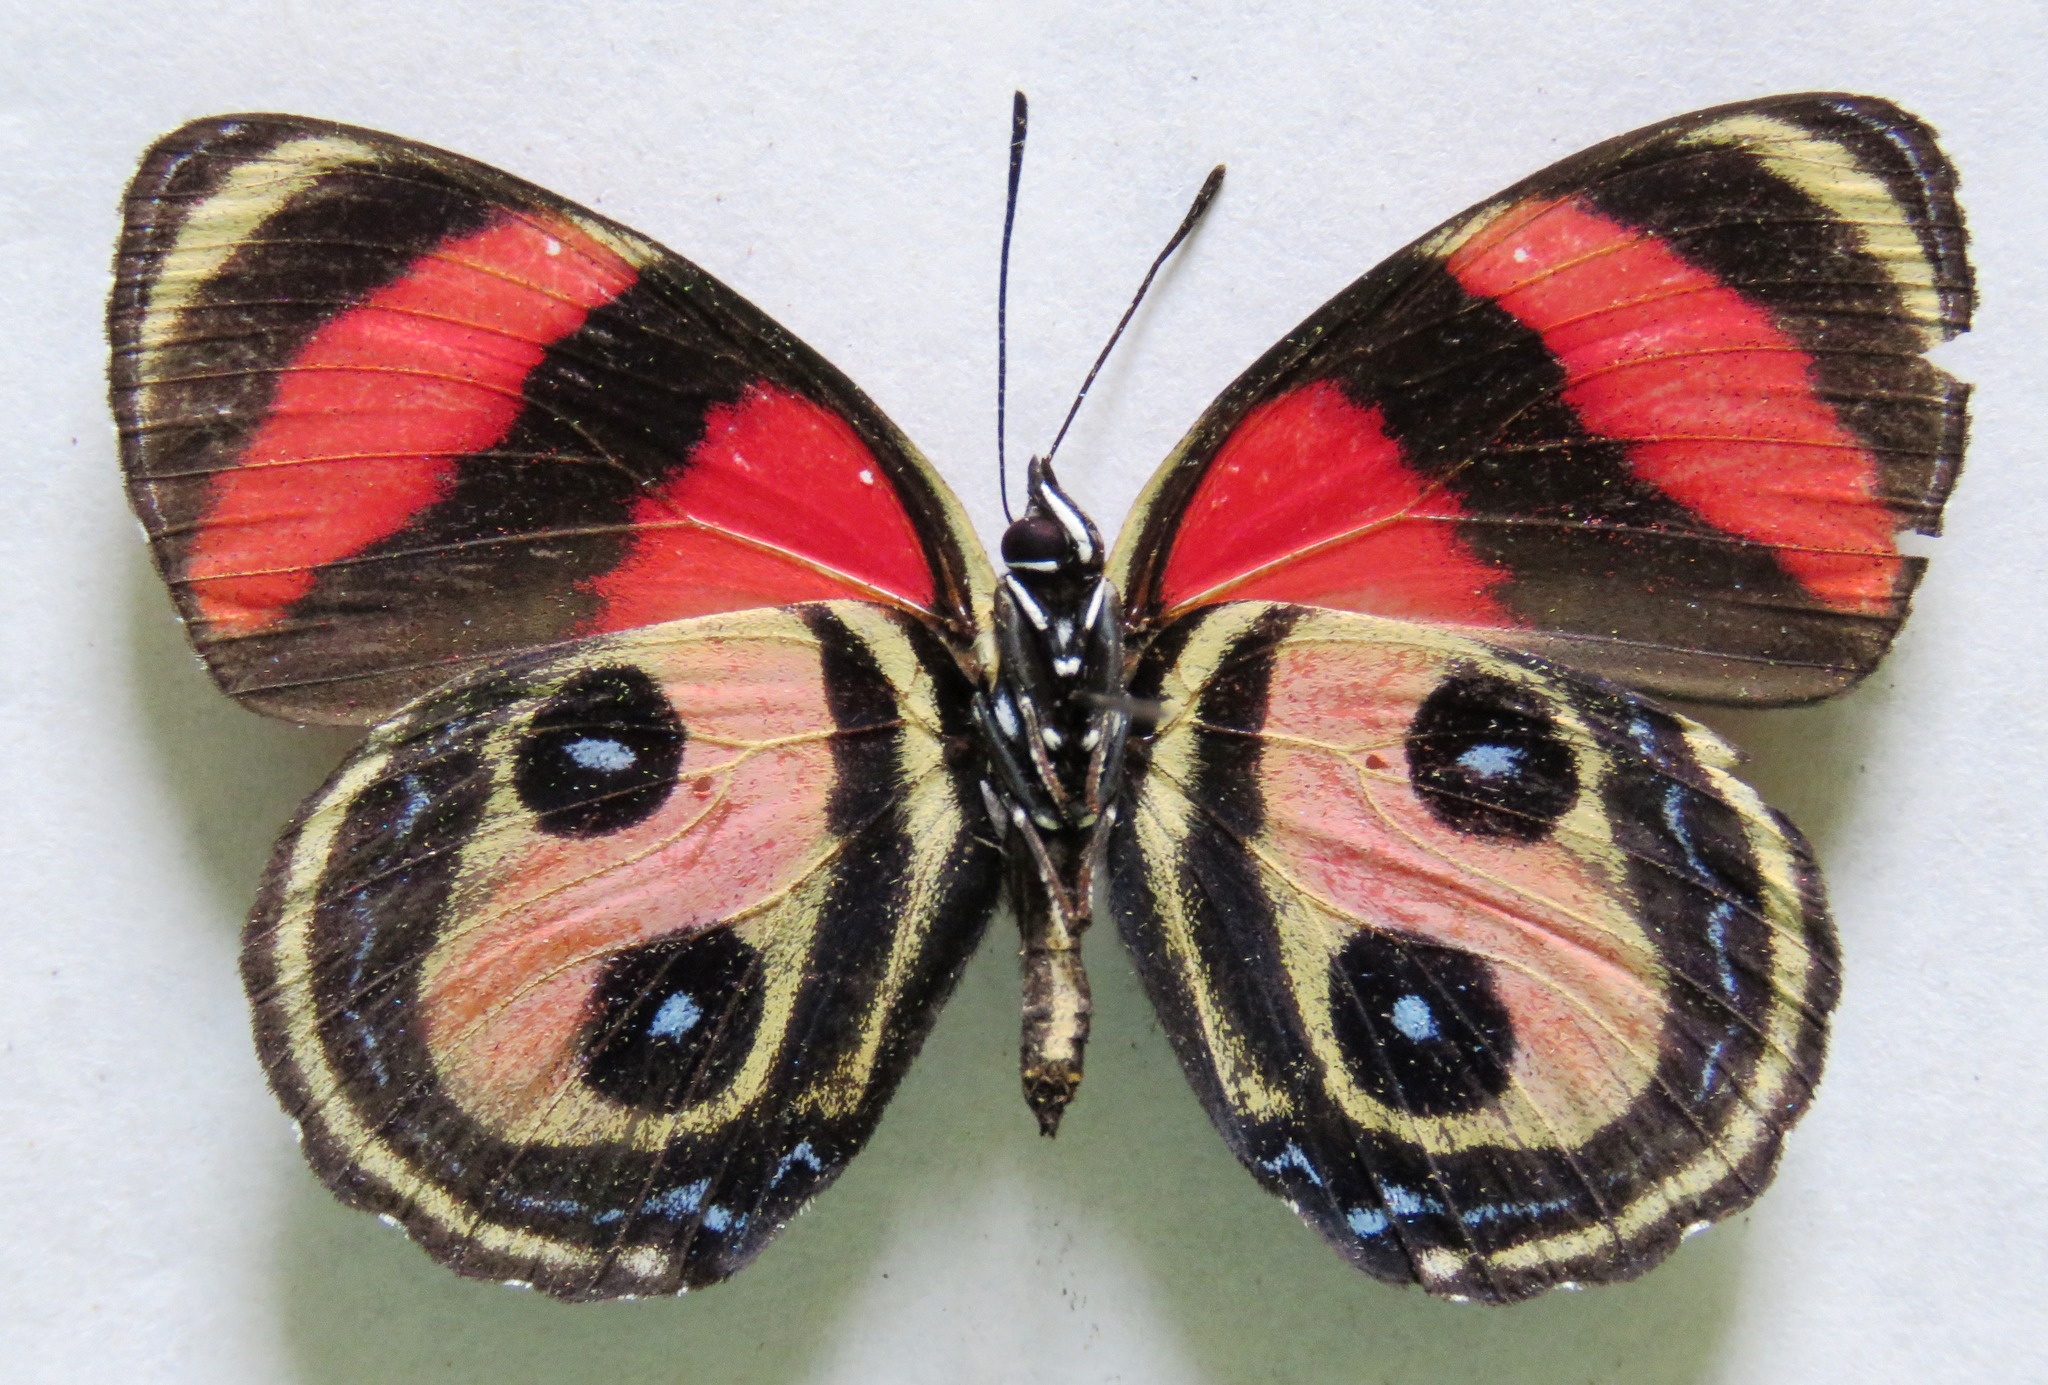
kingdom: Animalia
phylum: Arthropoda
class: Insecta
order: Lepidoptera
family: Nymphalidae
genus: Catagramma
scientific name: Catagramma Callicore pitheas
